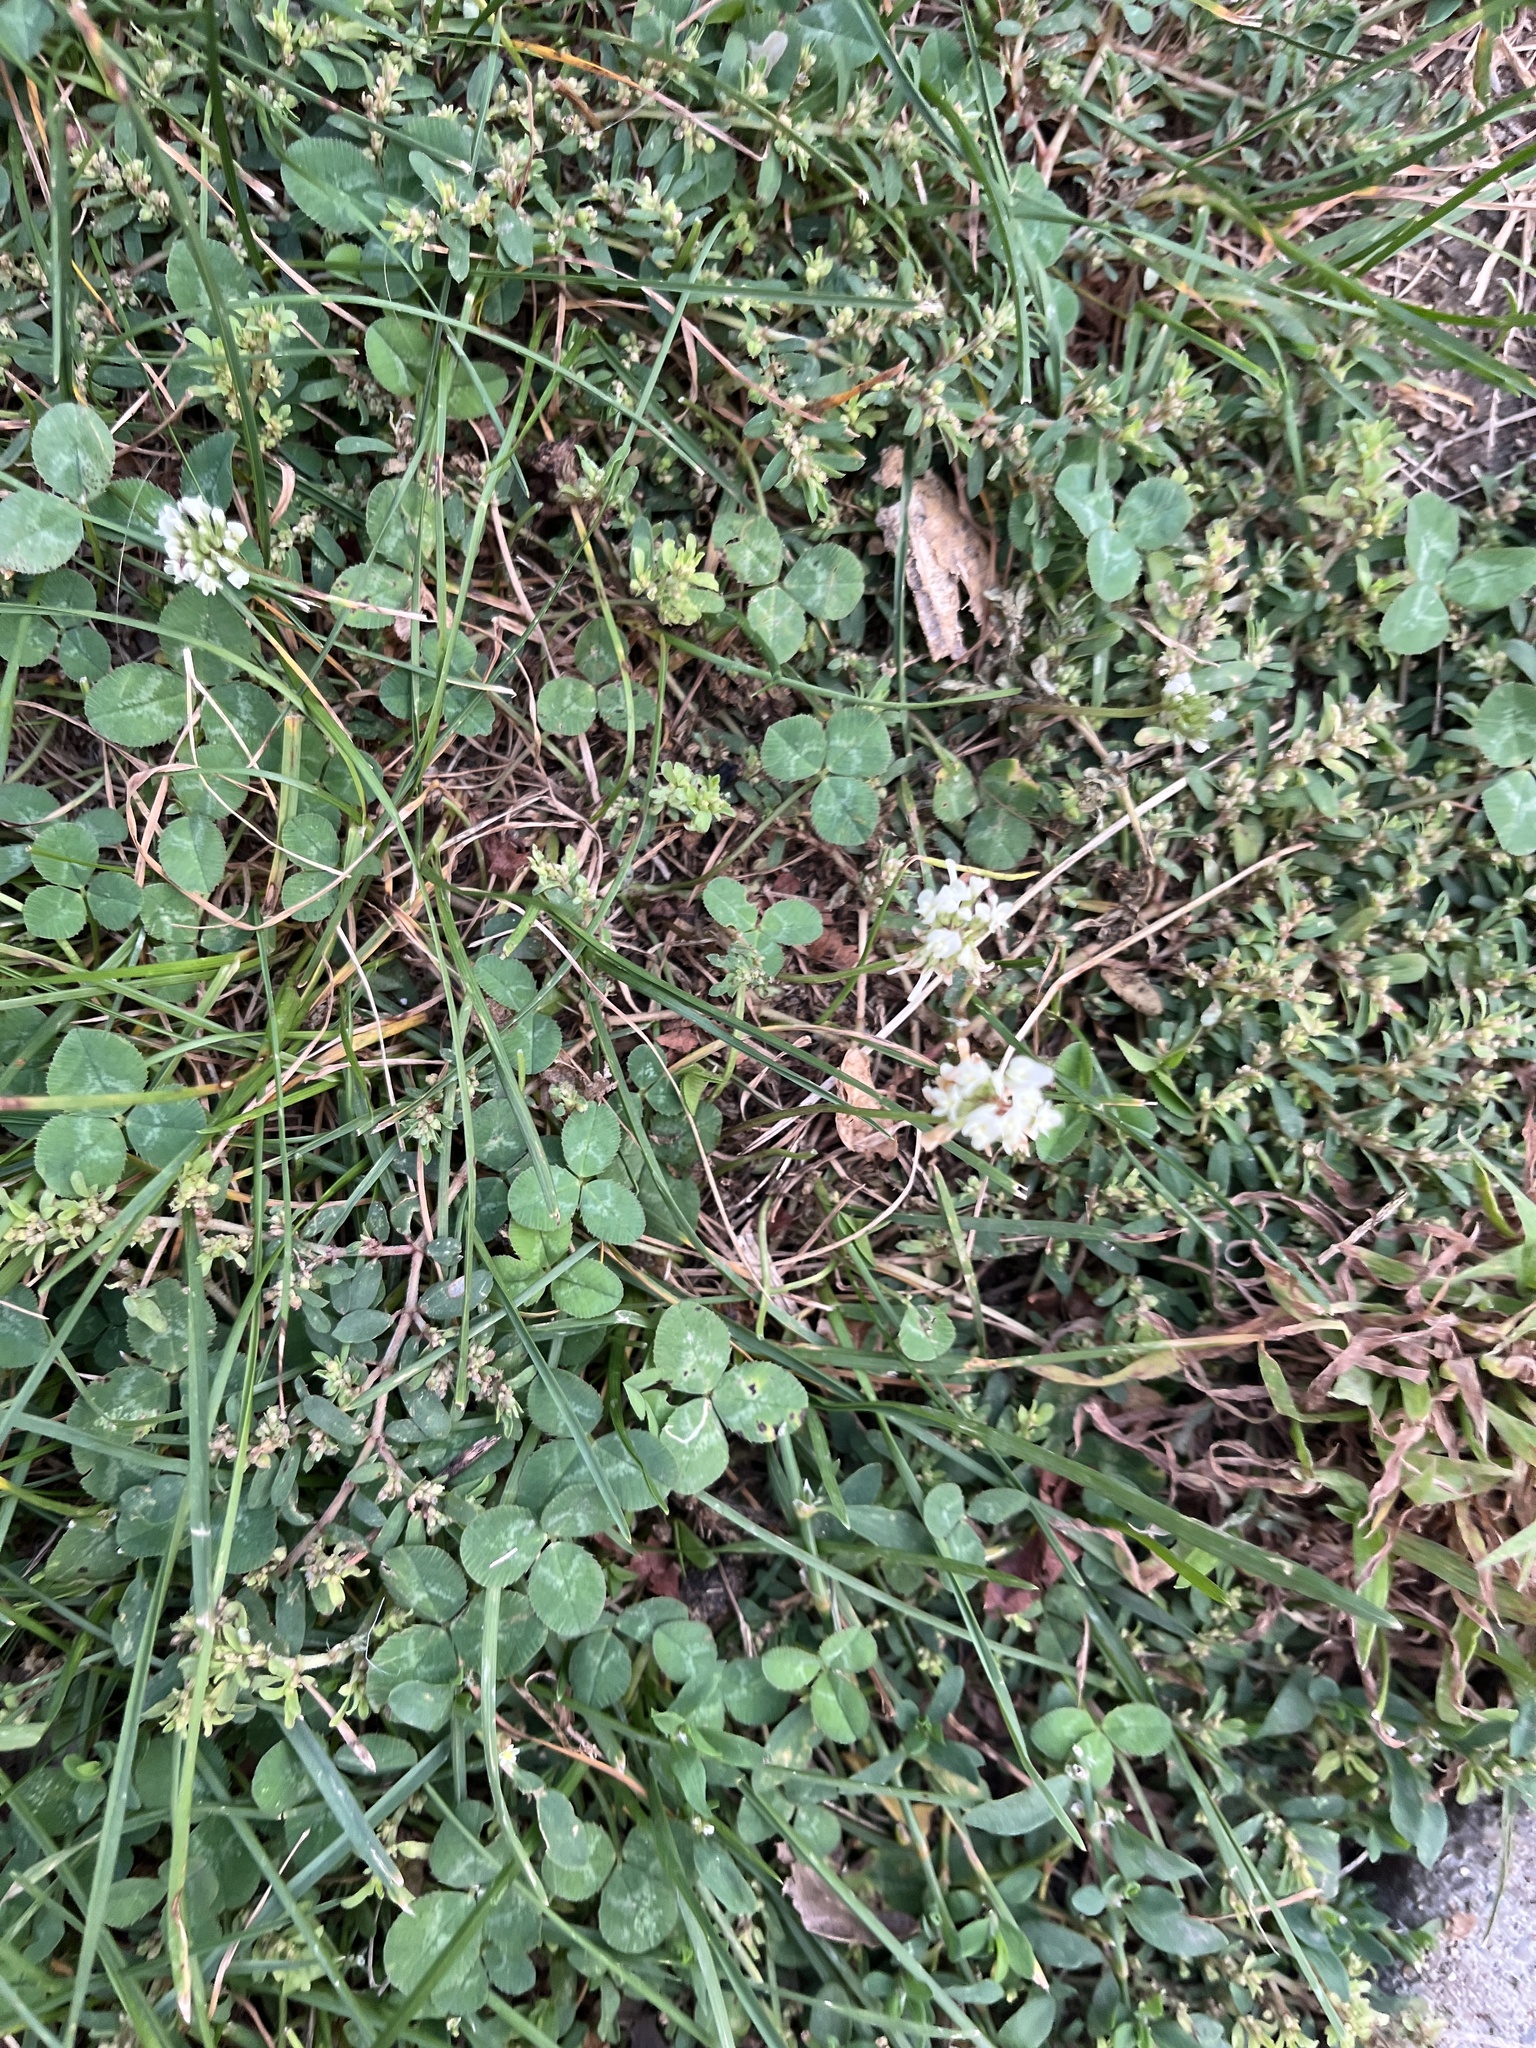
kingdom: Plantae
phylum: Tracheophyta
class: Magnoliopsida
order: Fabales
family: Fabaceae
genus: Trifolium
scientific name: Trifolium repens
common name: White clover
